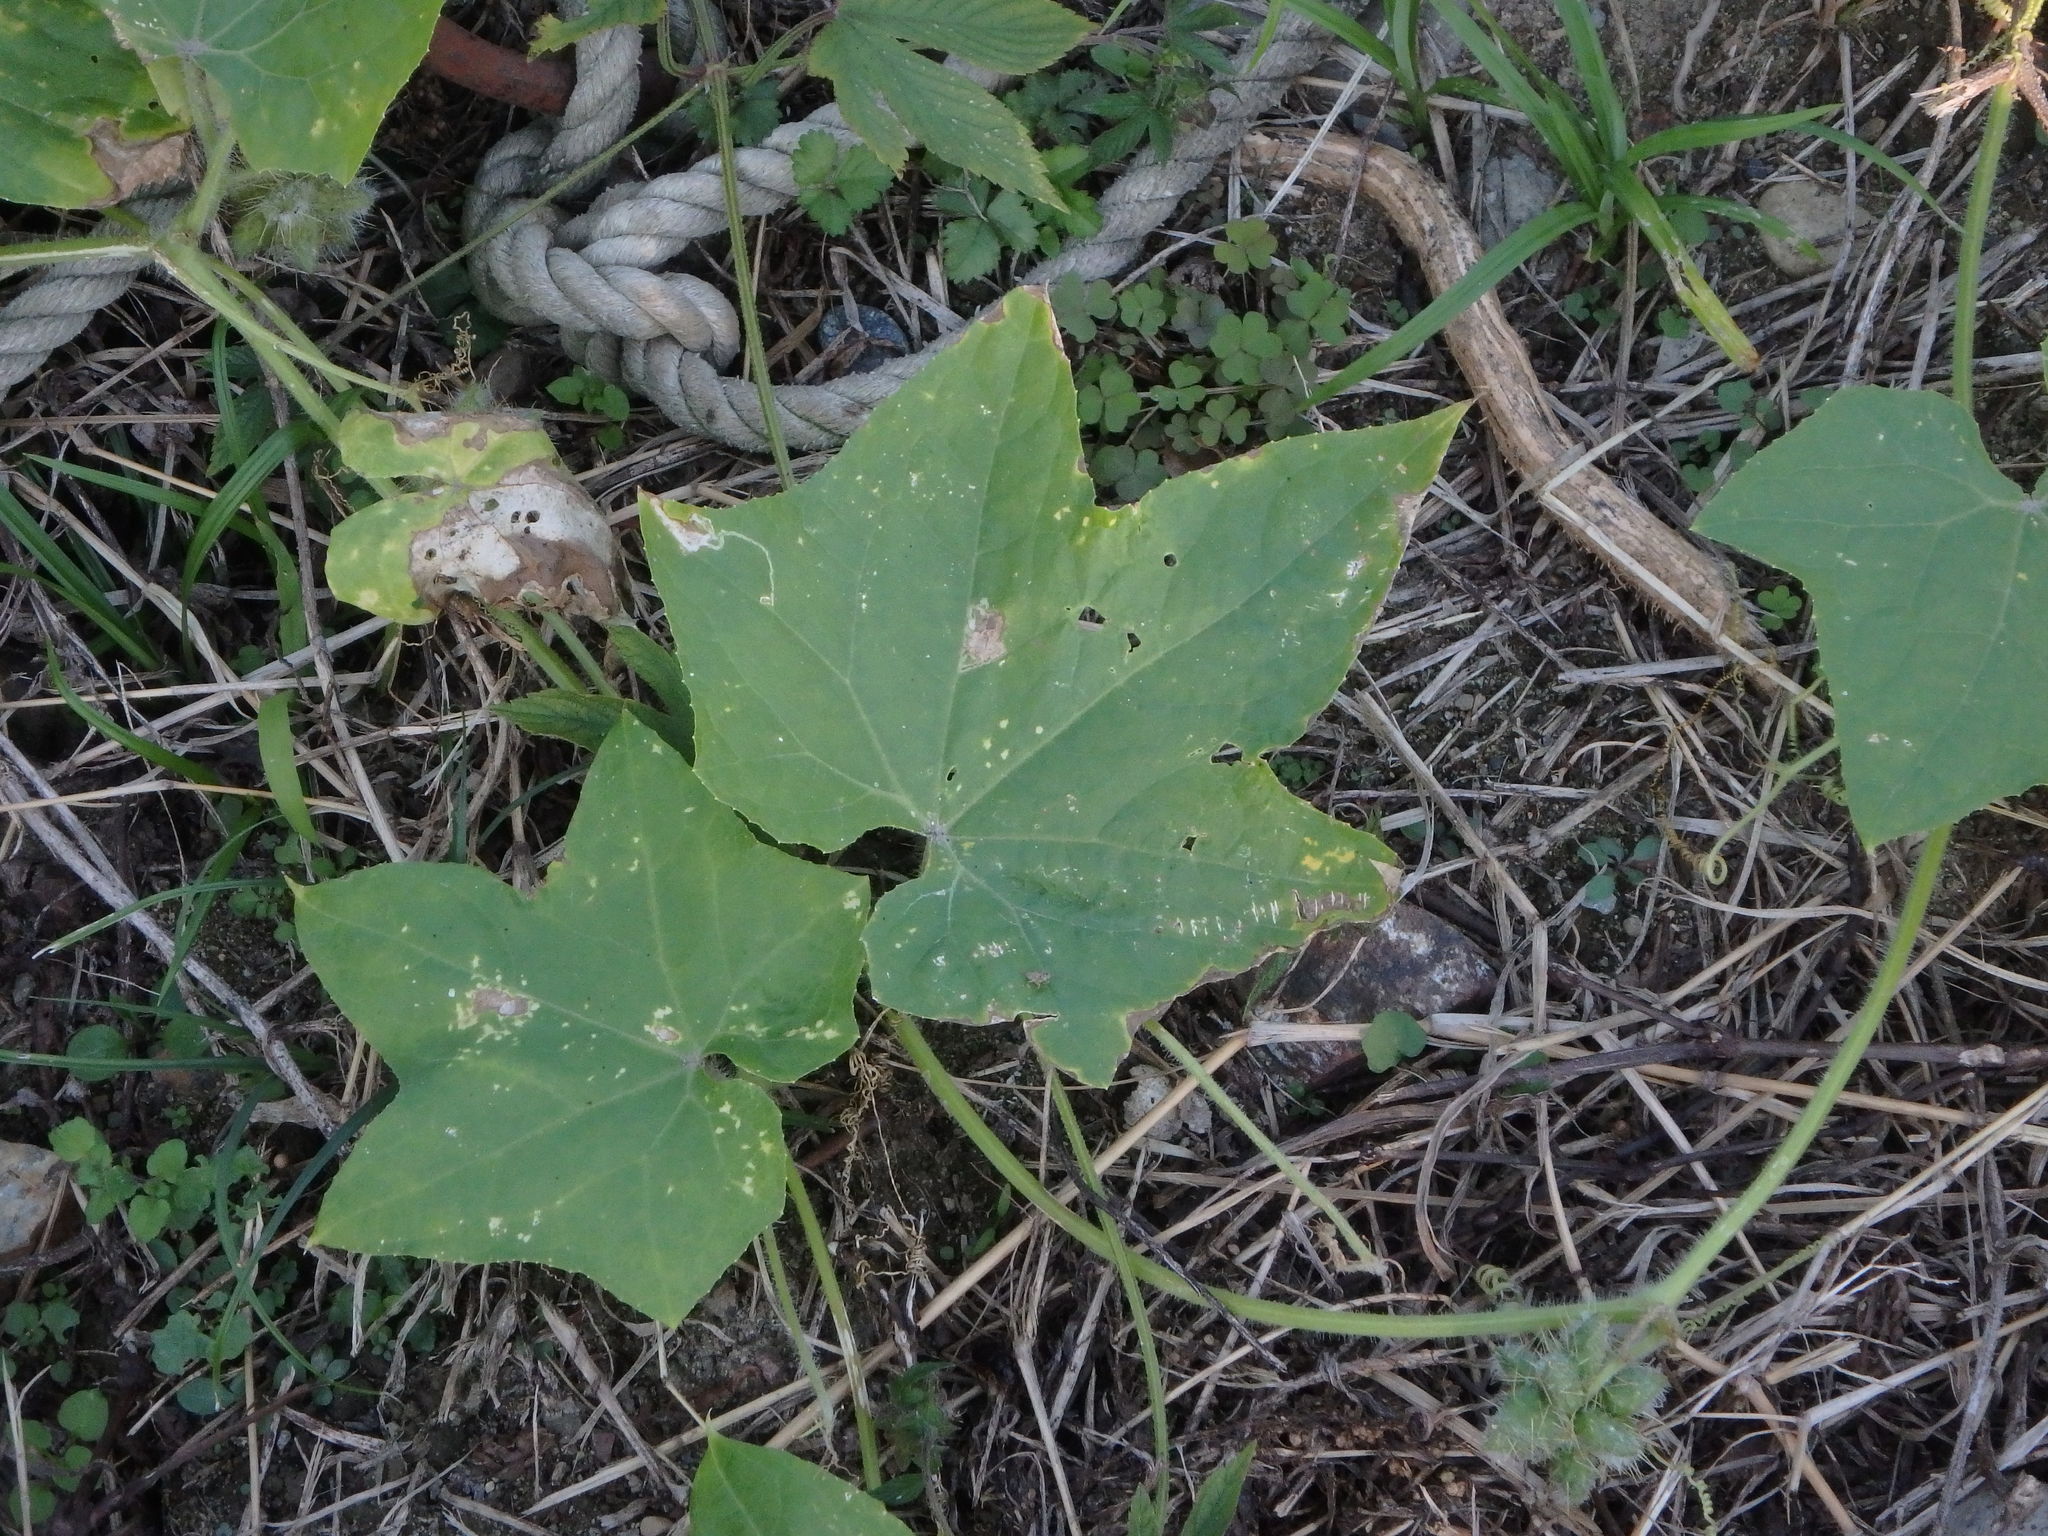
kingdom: Plantae
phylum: Tracheophyta
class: Magnoliopsida
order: Cucurbitales
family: Cucurbitaceae
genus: Sicyos
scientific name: Sicyos angulatus
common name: Angled burr cucumber
